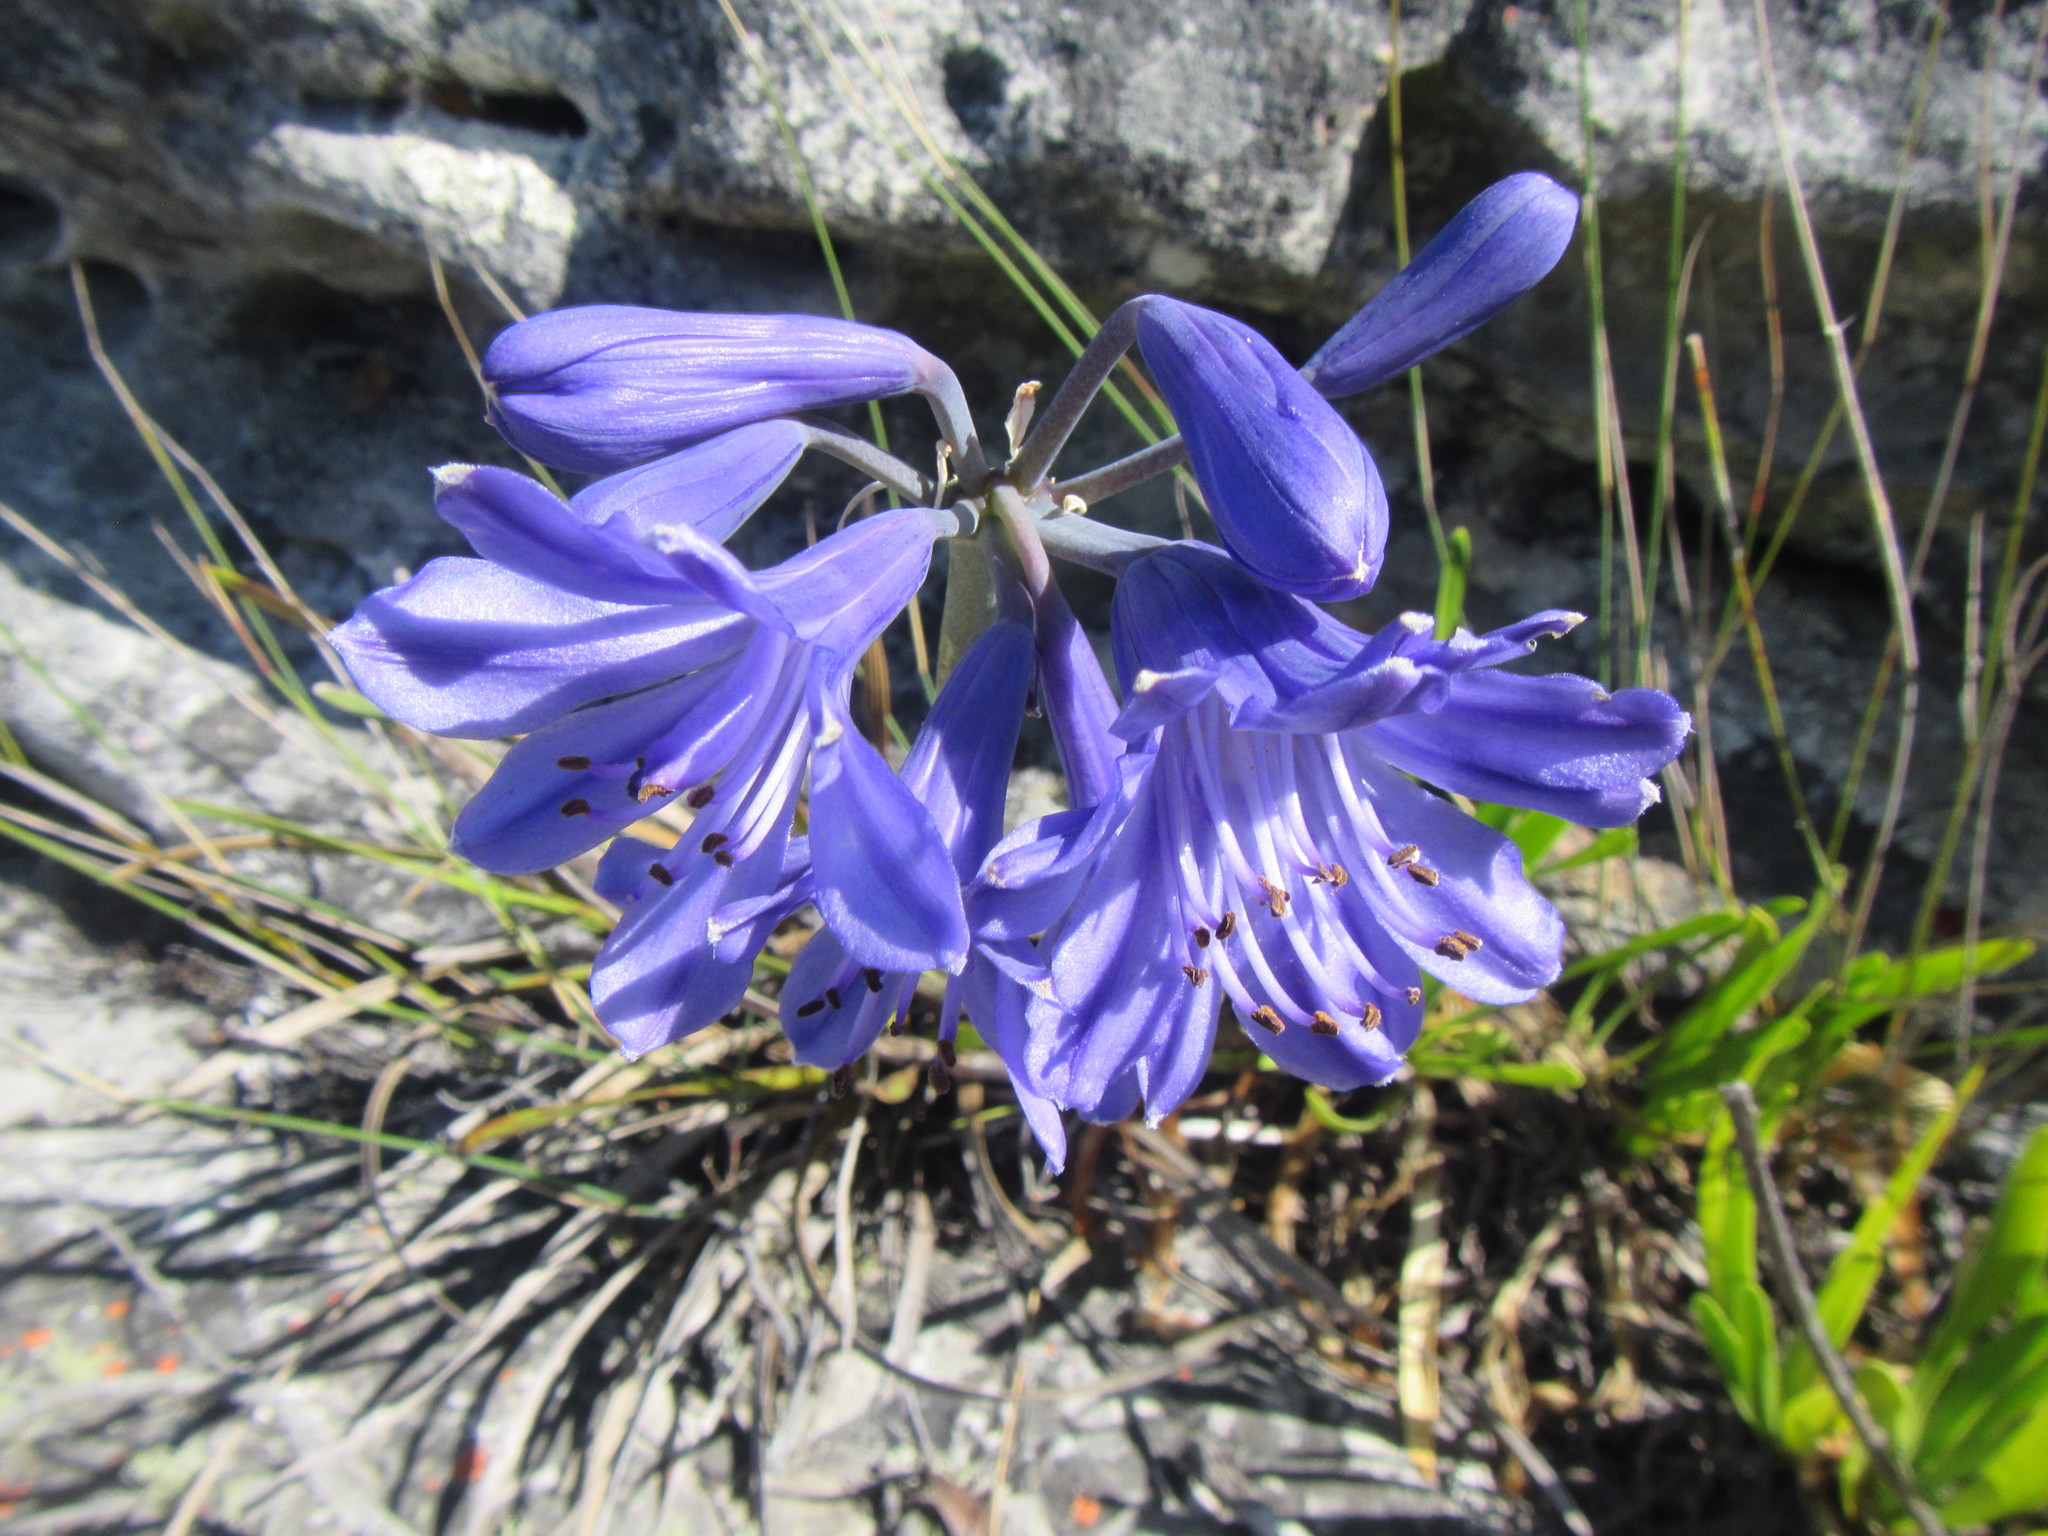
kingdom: Plantae
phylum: Tracheophyta
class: Liliopsida
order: Asparagales
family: Amaryllidaceae
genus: Agapanthus
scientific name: Agapanthus africanus
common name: Lily-of-the-nile
